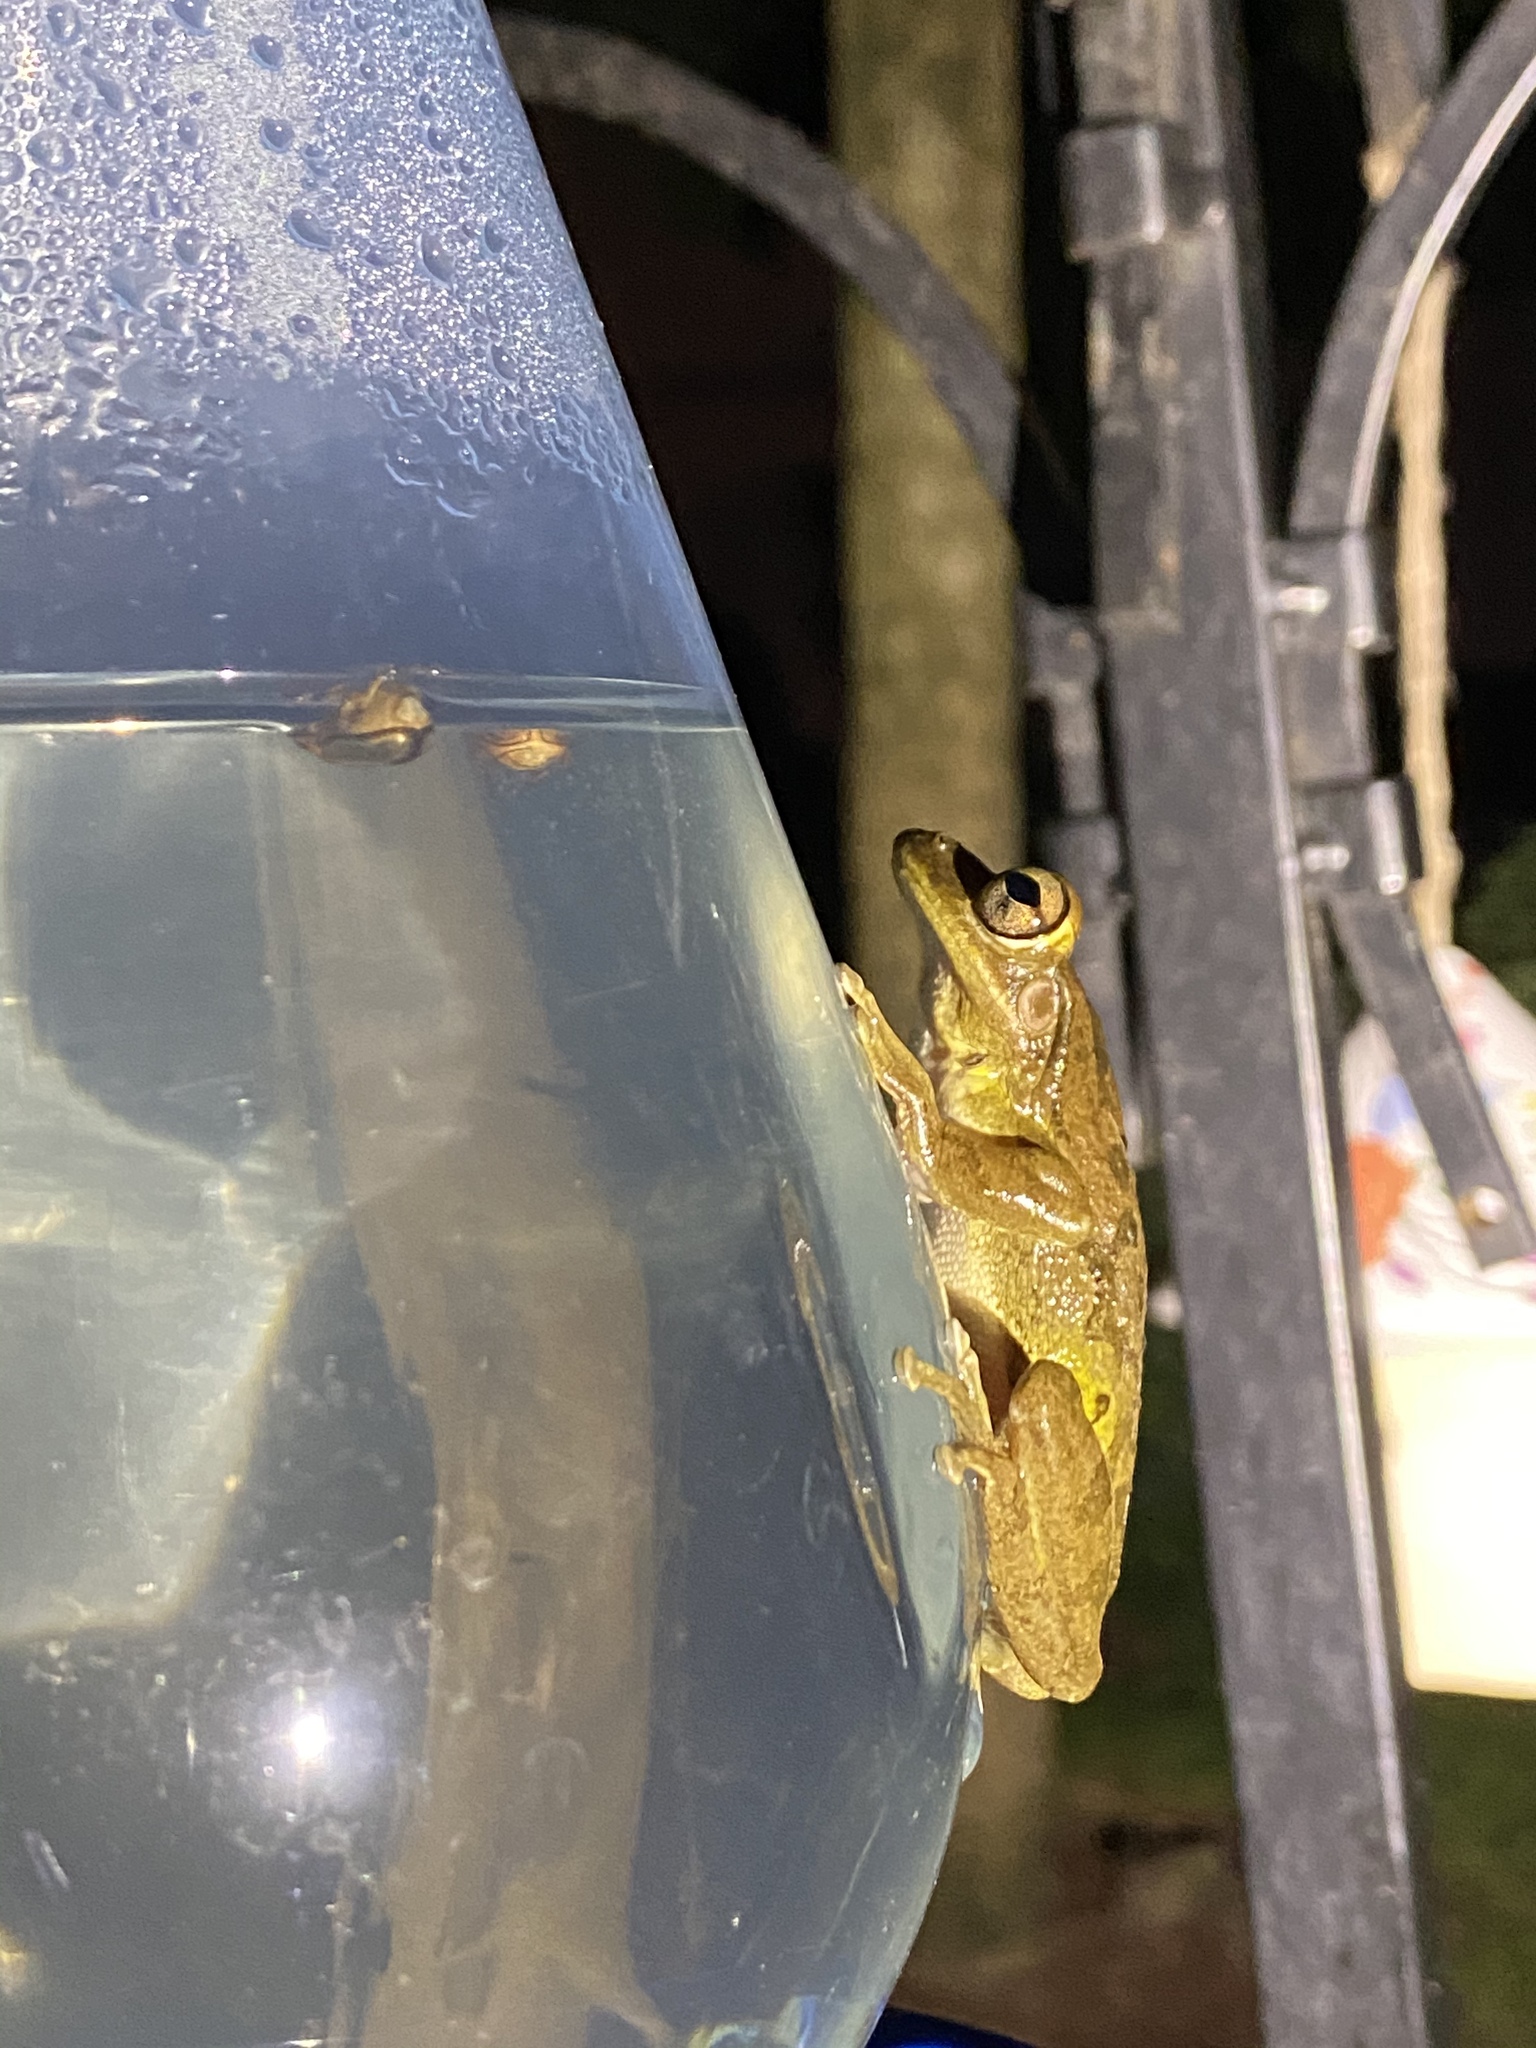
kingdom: Animalia
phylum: Chordata
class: Amphibia
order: Anura
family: Hylidae
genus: Osteopilus
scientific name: Osteopilus septentrionalis
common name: Cuban treefrog
